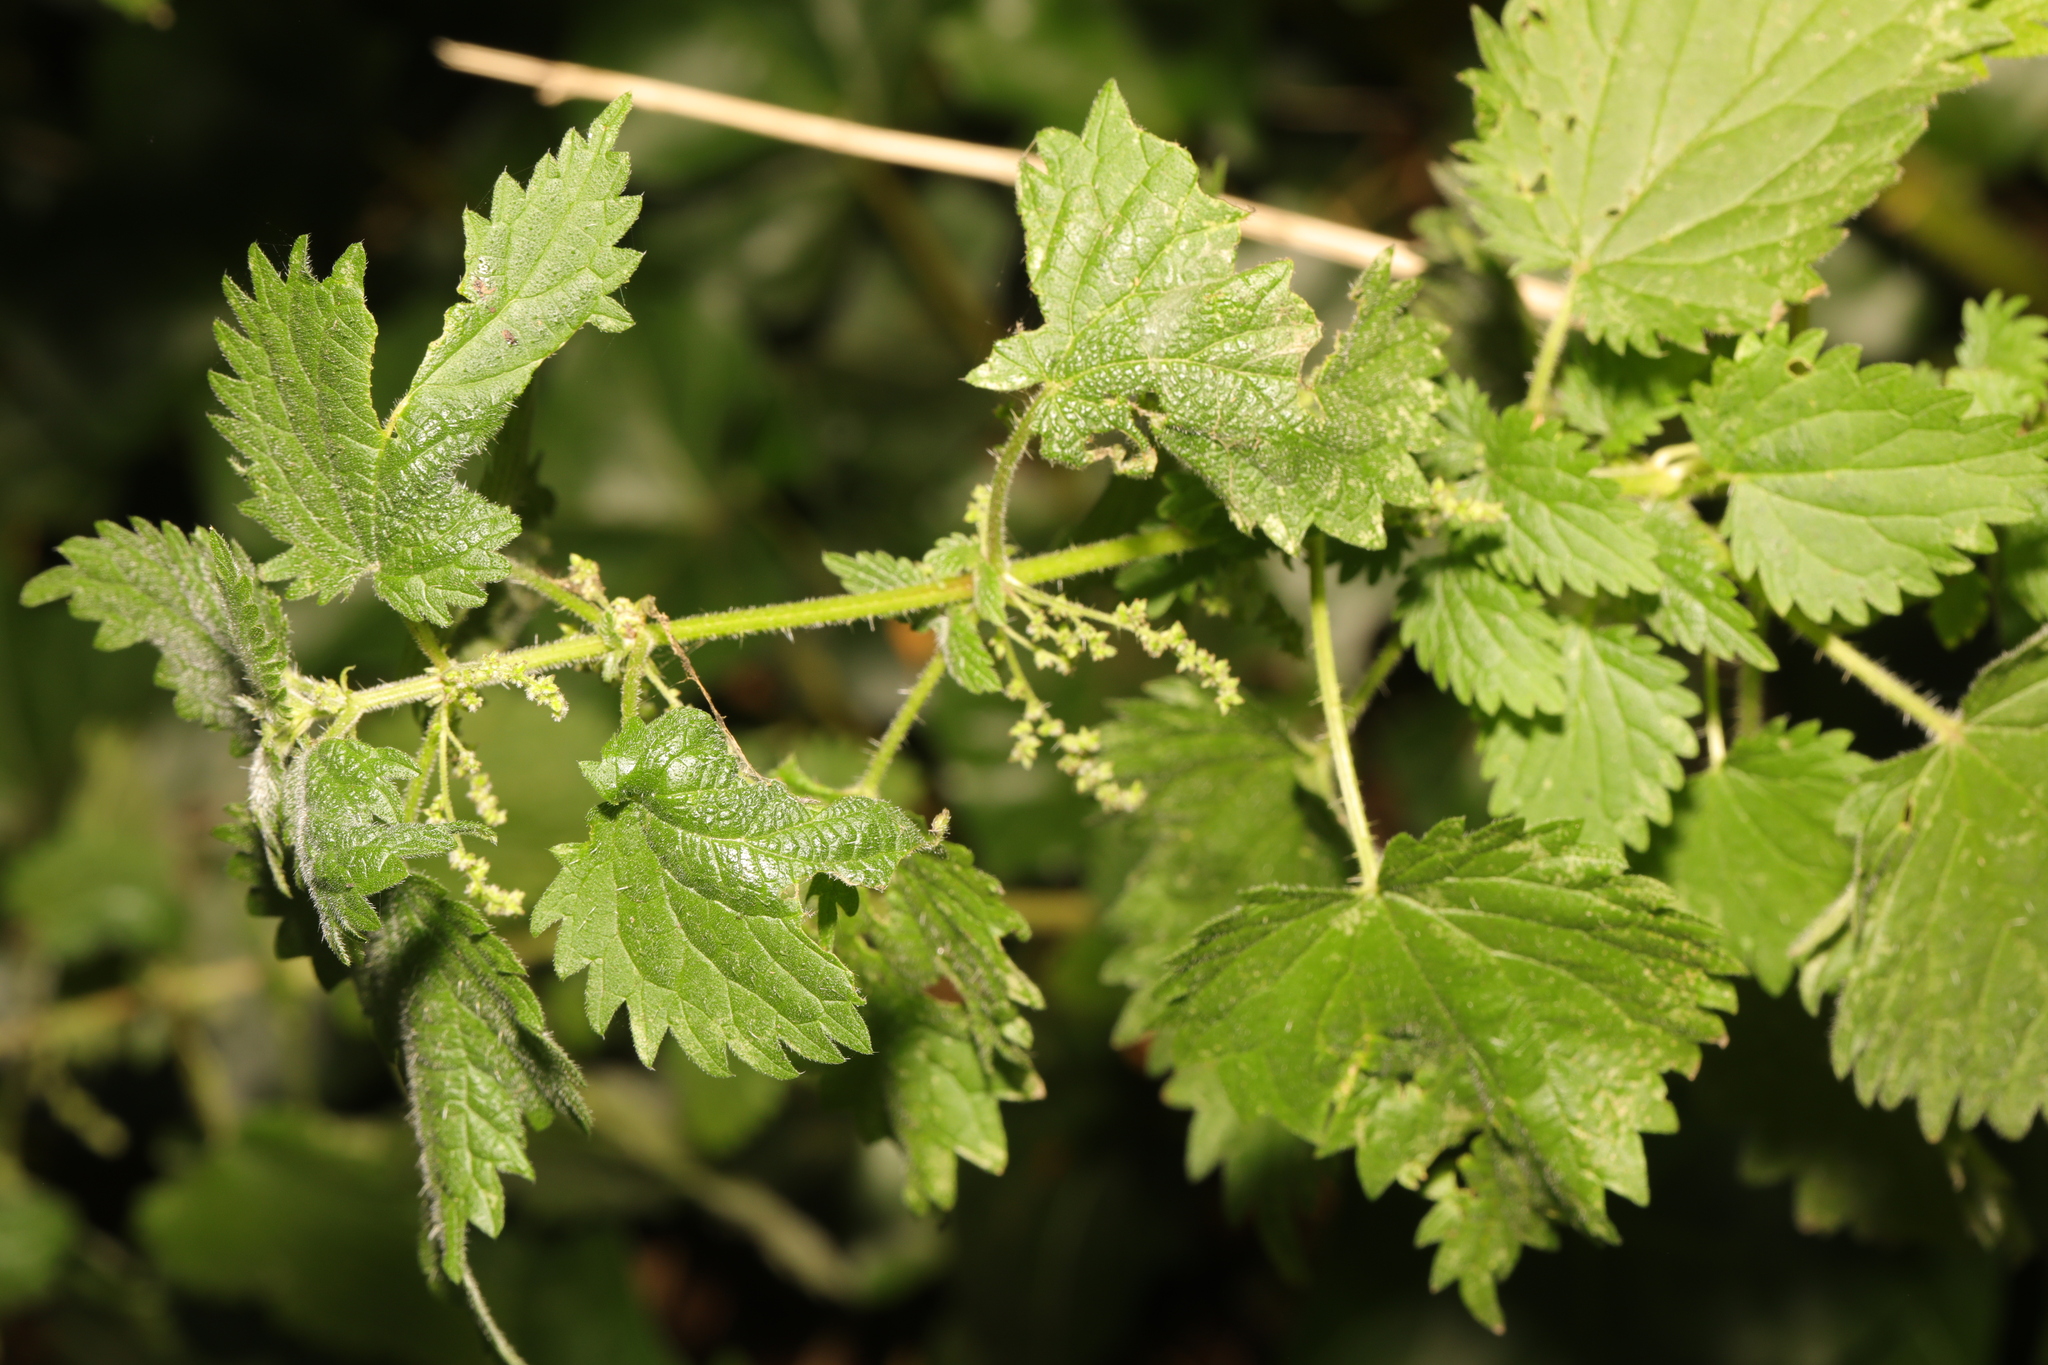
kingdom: Plantae
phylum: Tracheophyta
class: Magnoliopsida
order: Rosales
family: Urticaceae
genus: Urtica
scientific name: Urtica dioica
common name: Common nettle
